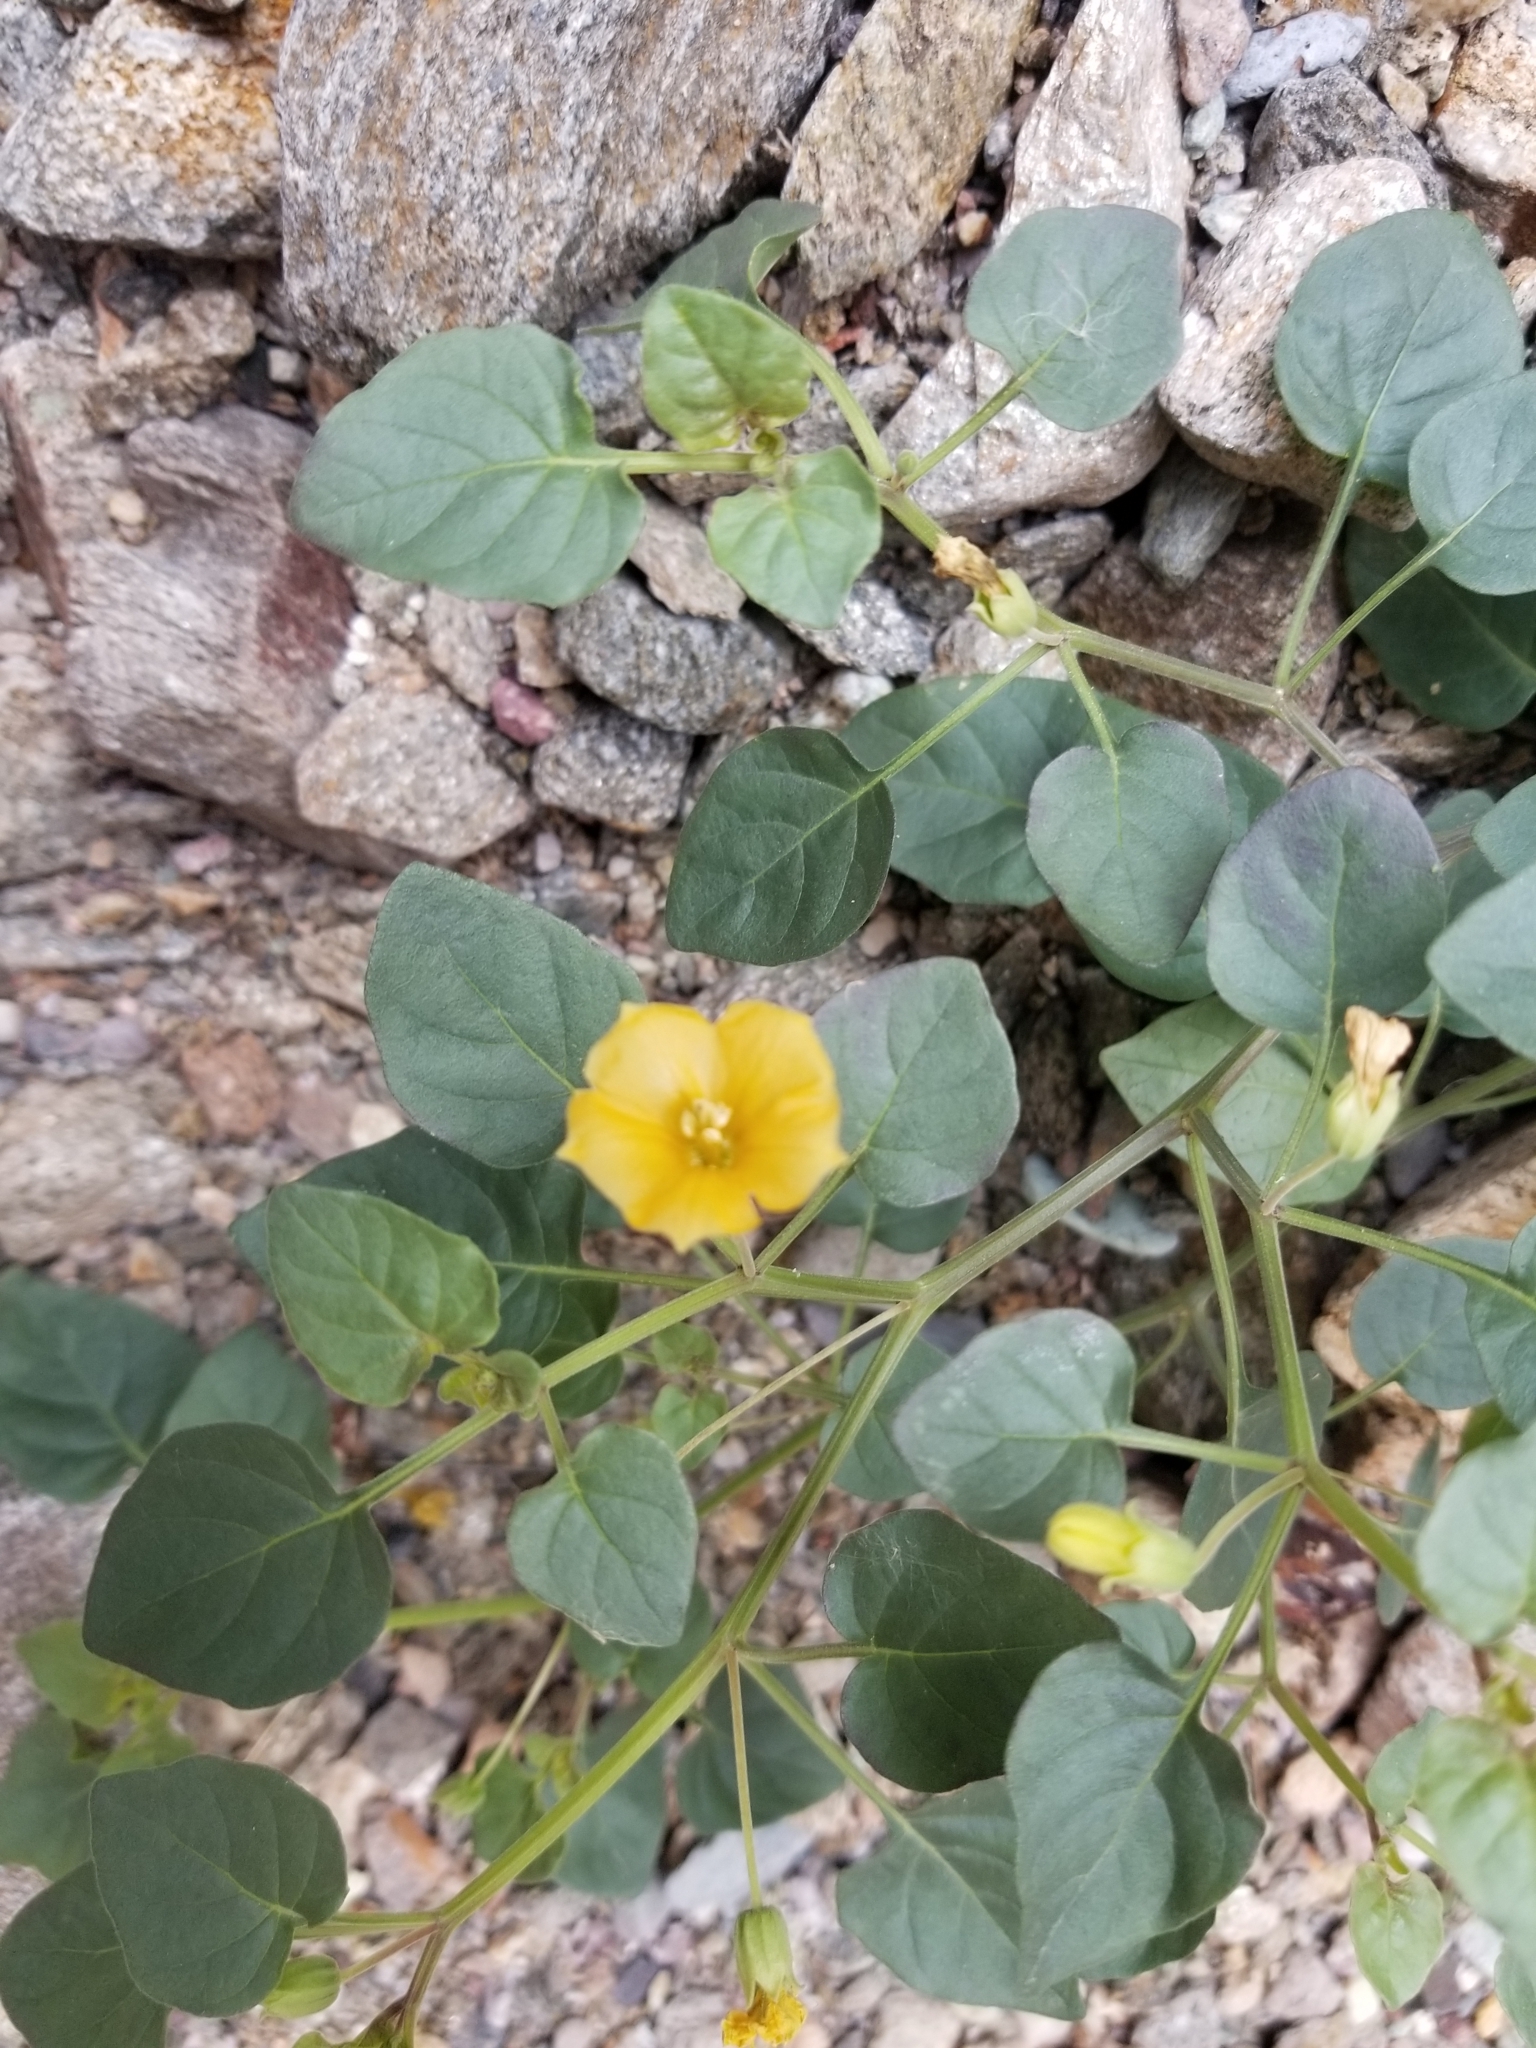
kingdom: Plantae
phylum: Tracheophyta
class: Magnoliopsida
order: Solanales
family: Solanaceae
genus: Physalis
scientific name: Physalis crassifolia
